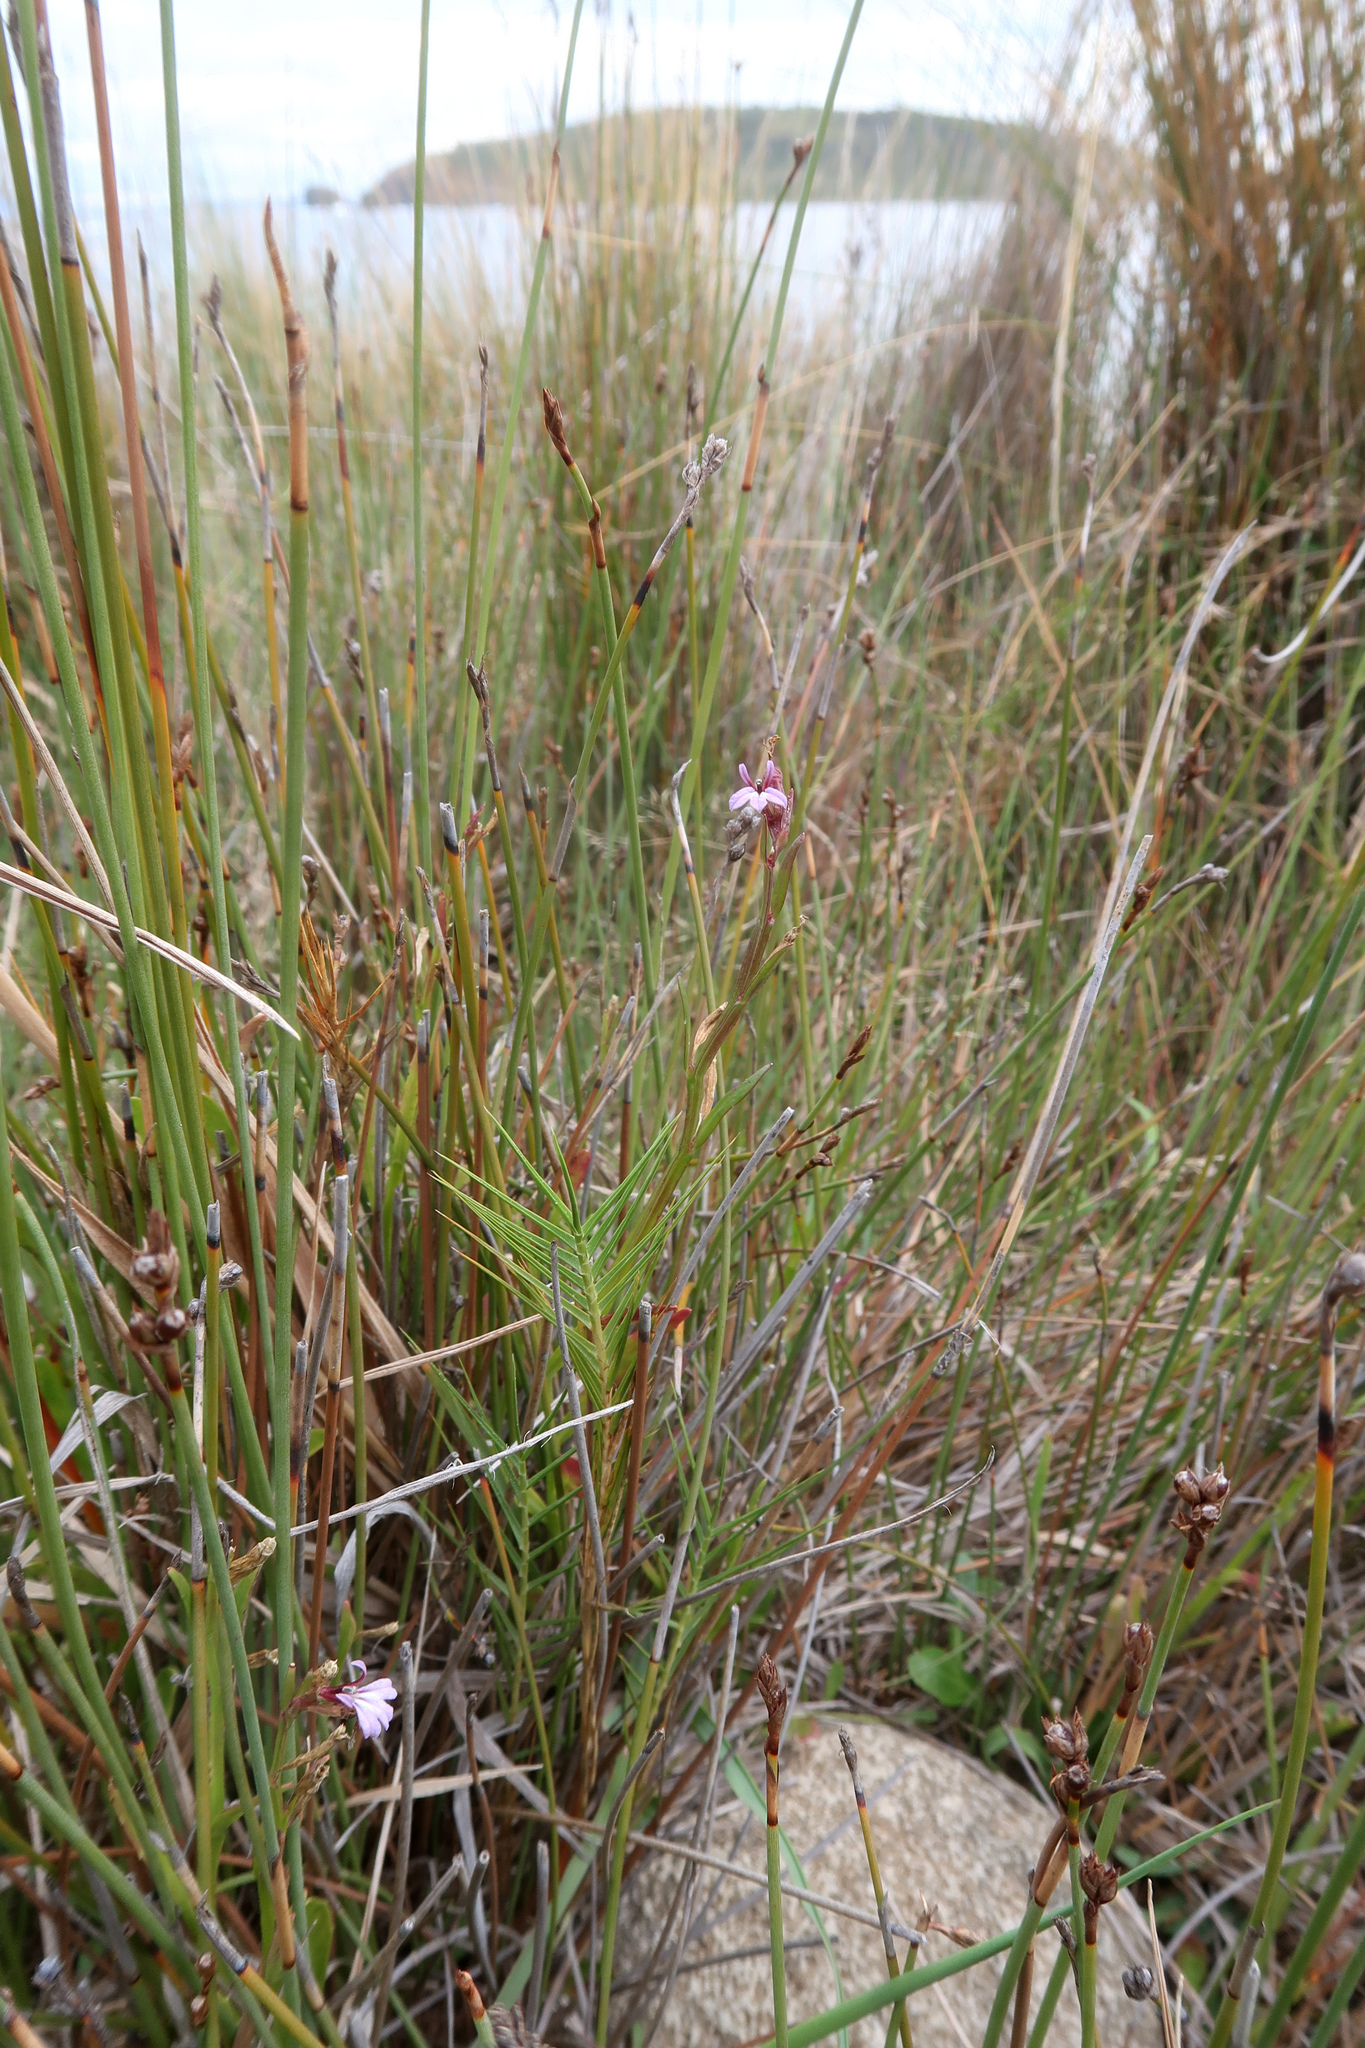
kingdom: Plantae
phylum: Tracheophyta
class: Magnoliopsida
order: Asterales
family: Campanulaceae
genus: Lobelia
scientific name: Lobelia anceps
